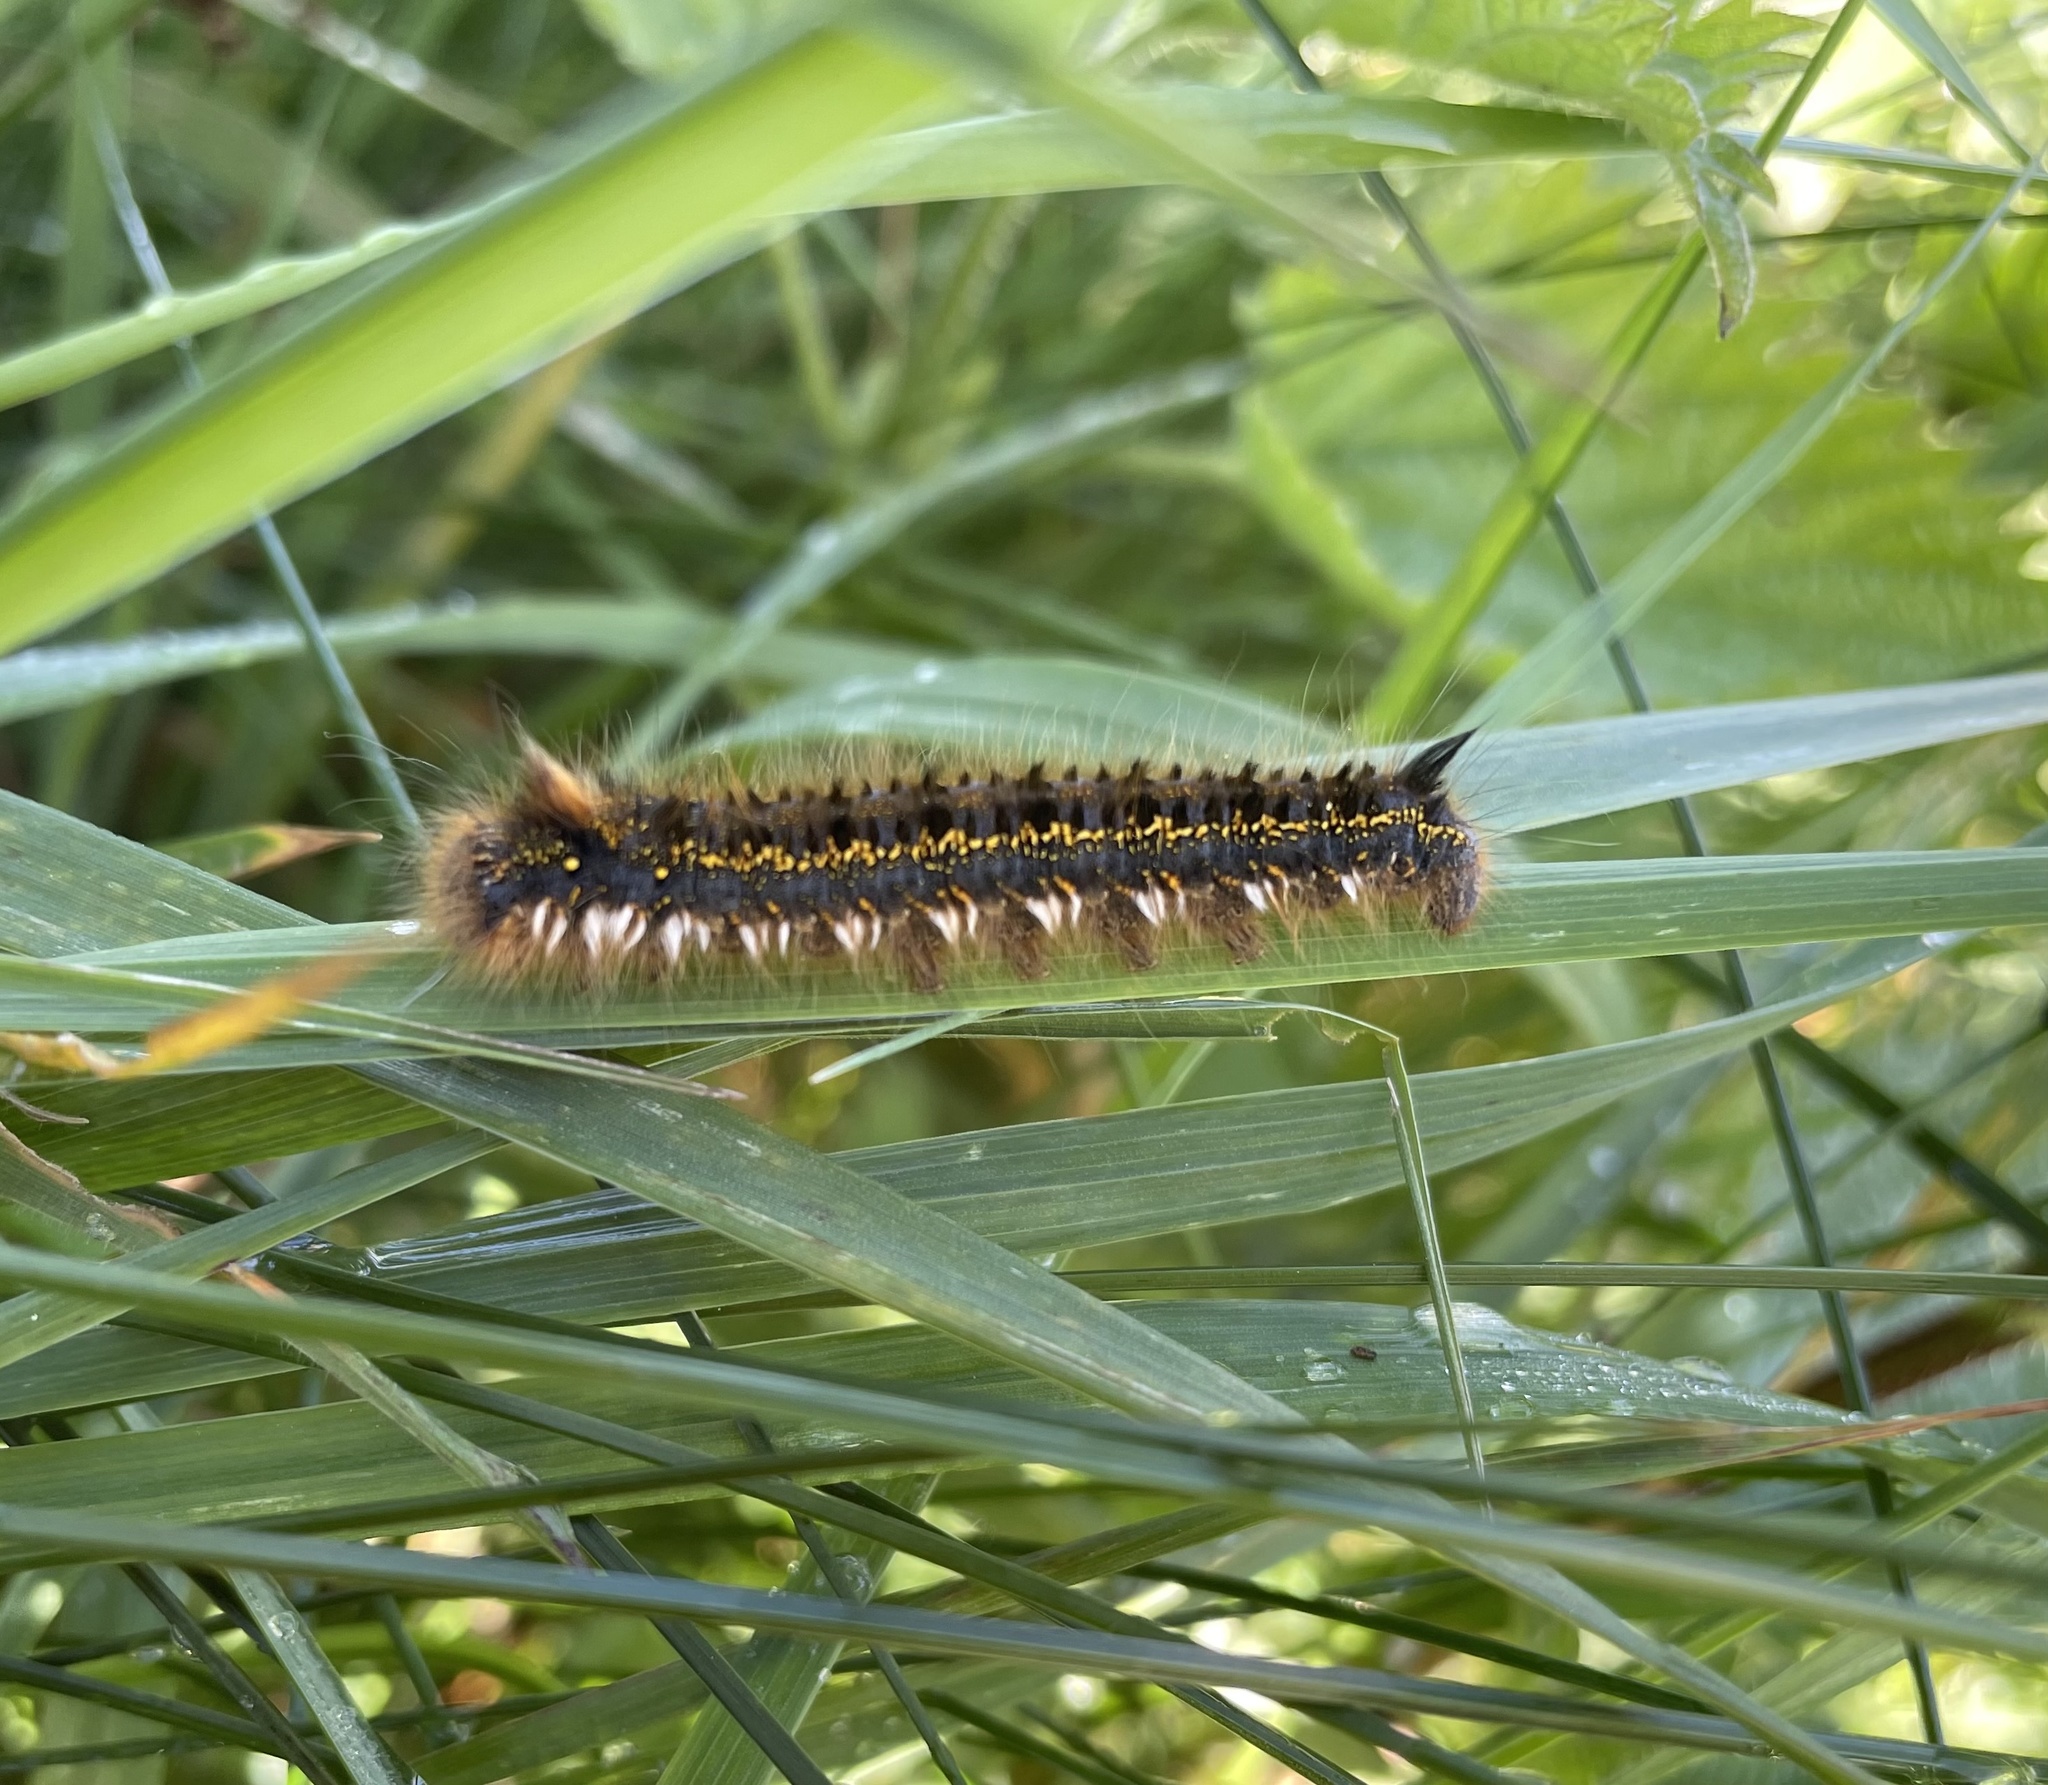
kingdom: Animalia
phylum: Arthropoda
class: Insecta
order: Lepidoptera
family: Lasiocampidae
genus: Euthrix
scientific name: Euthrix potatoria
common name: Drinker
